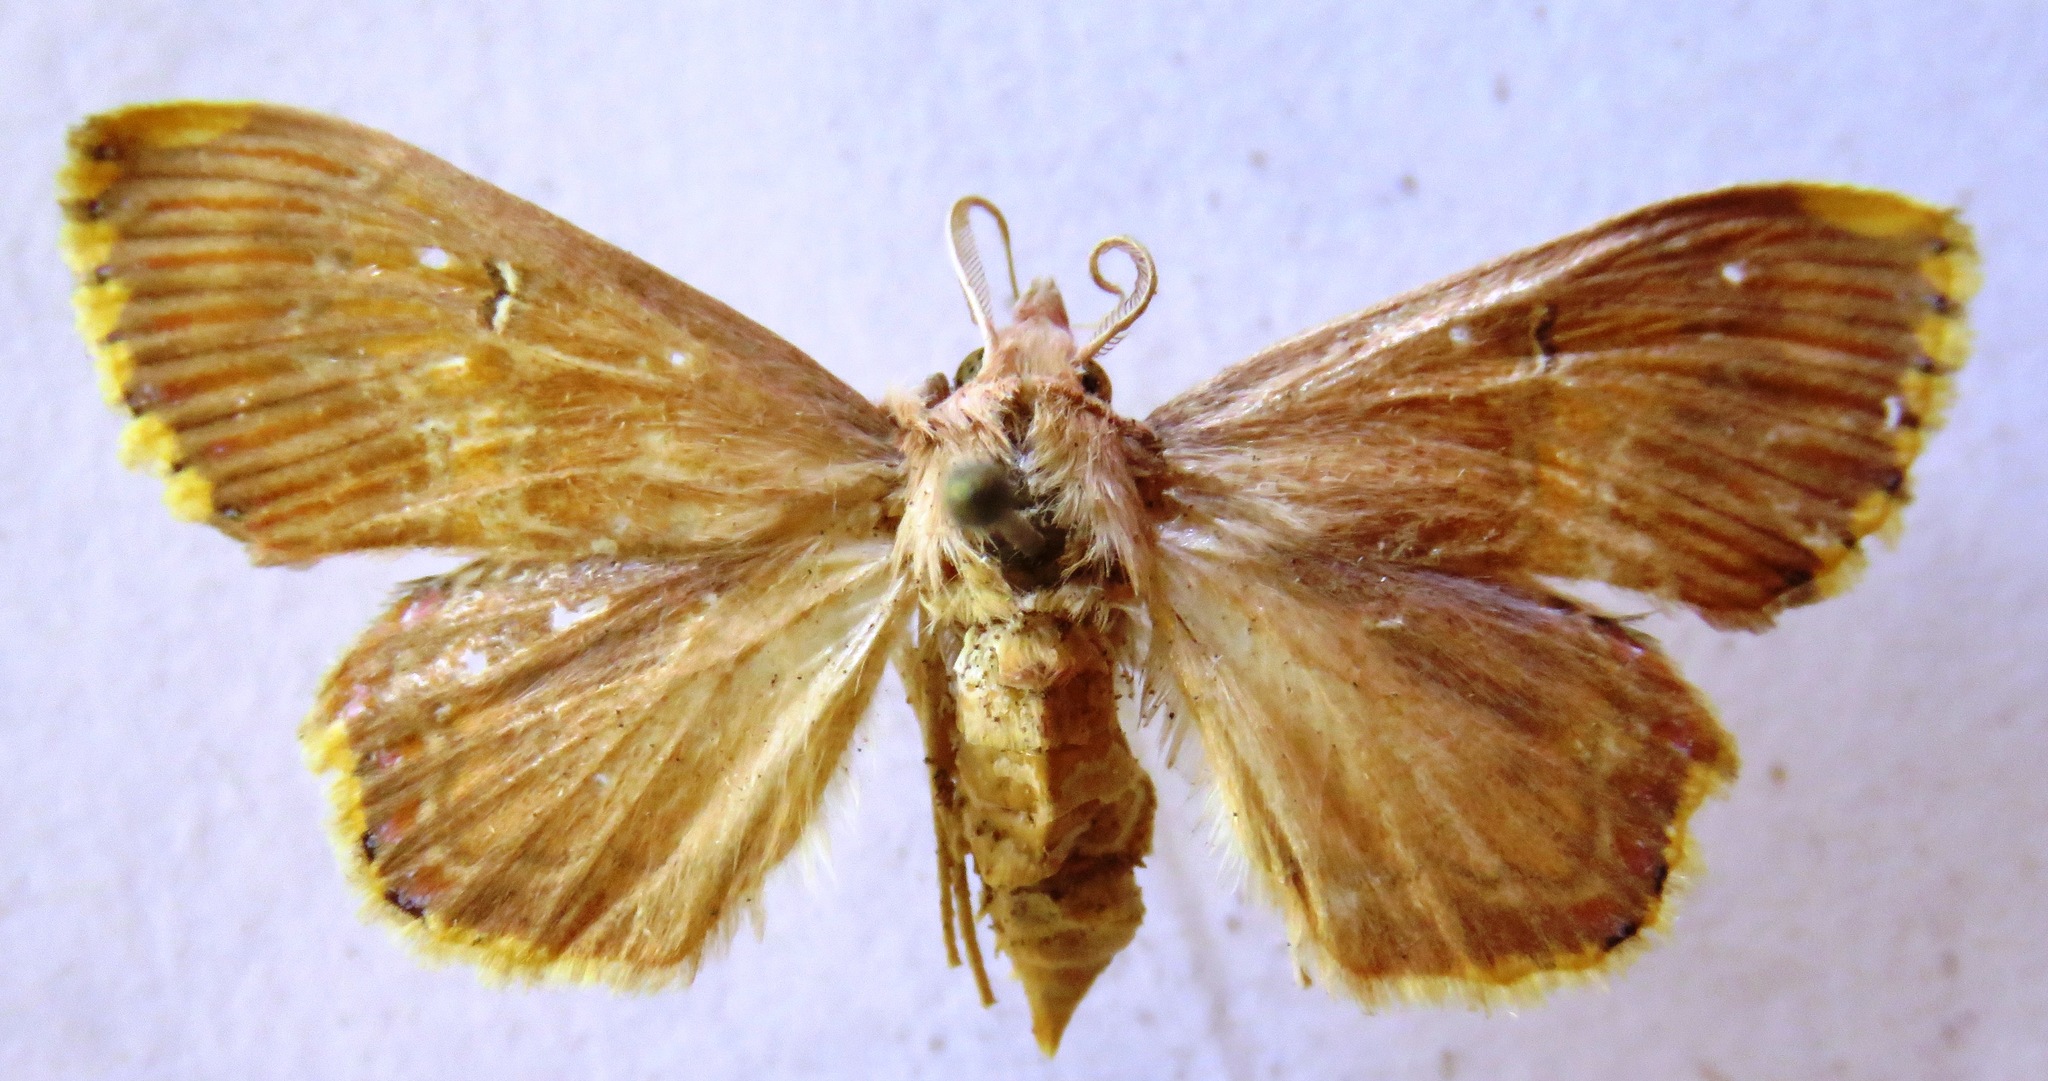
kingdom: Animalia
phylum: Arthropoda
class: Insecta
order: Lepidoptera
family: Erebidae
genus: Sosxetra
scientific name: Sosxetra grata
